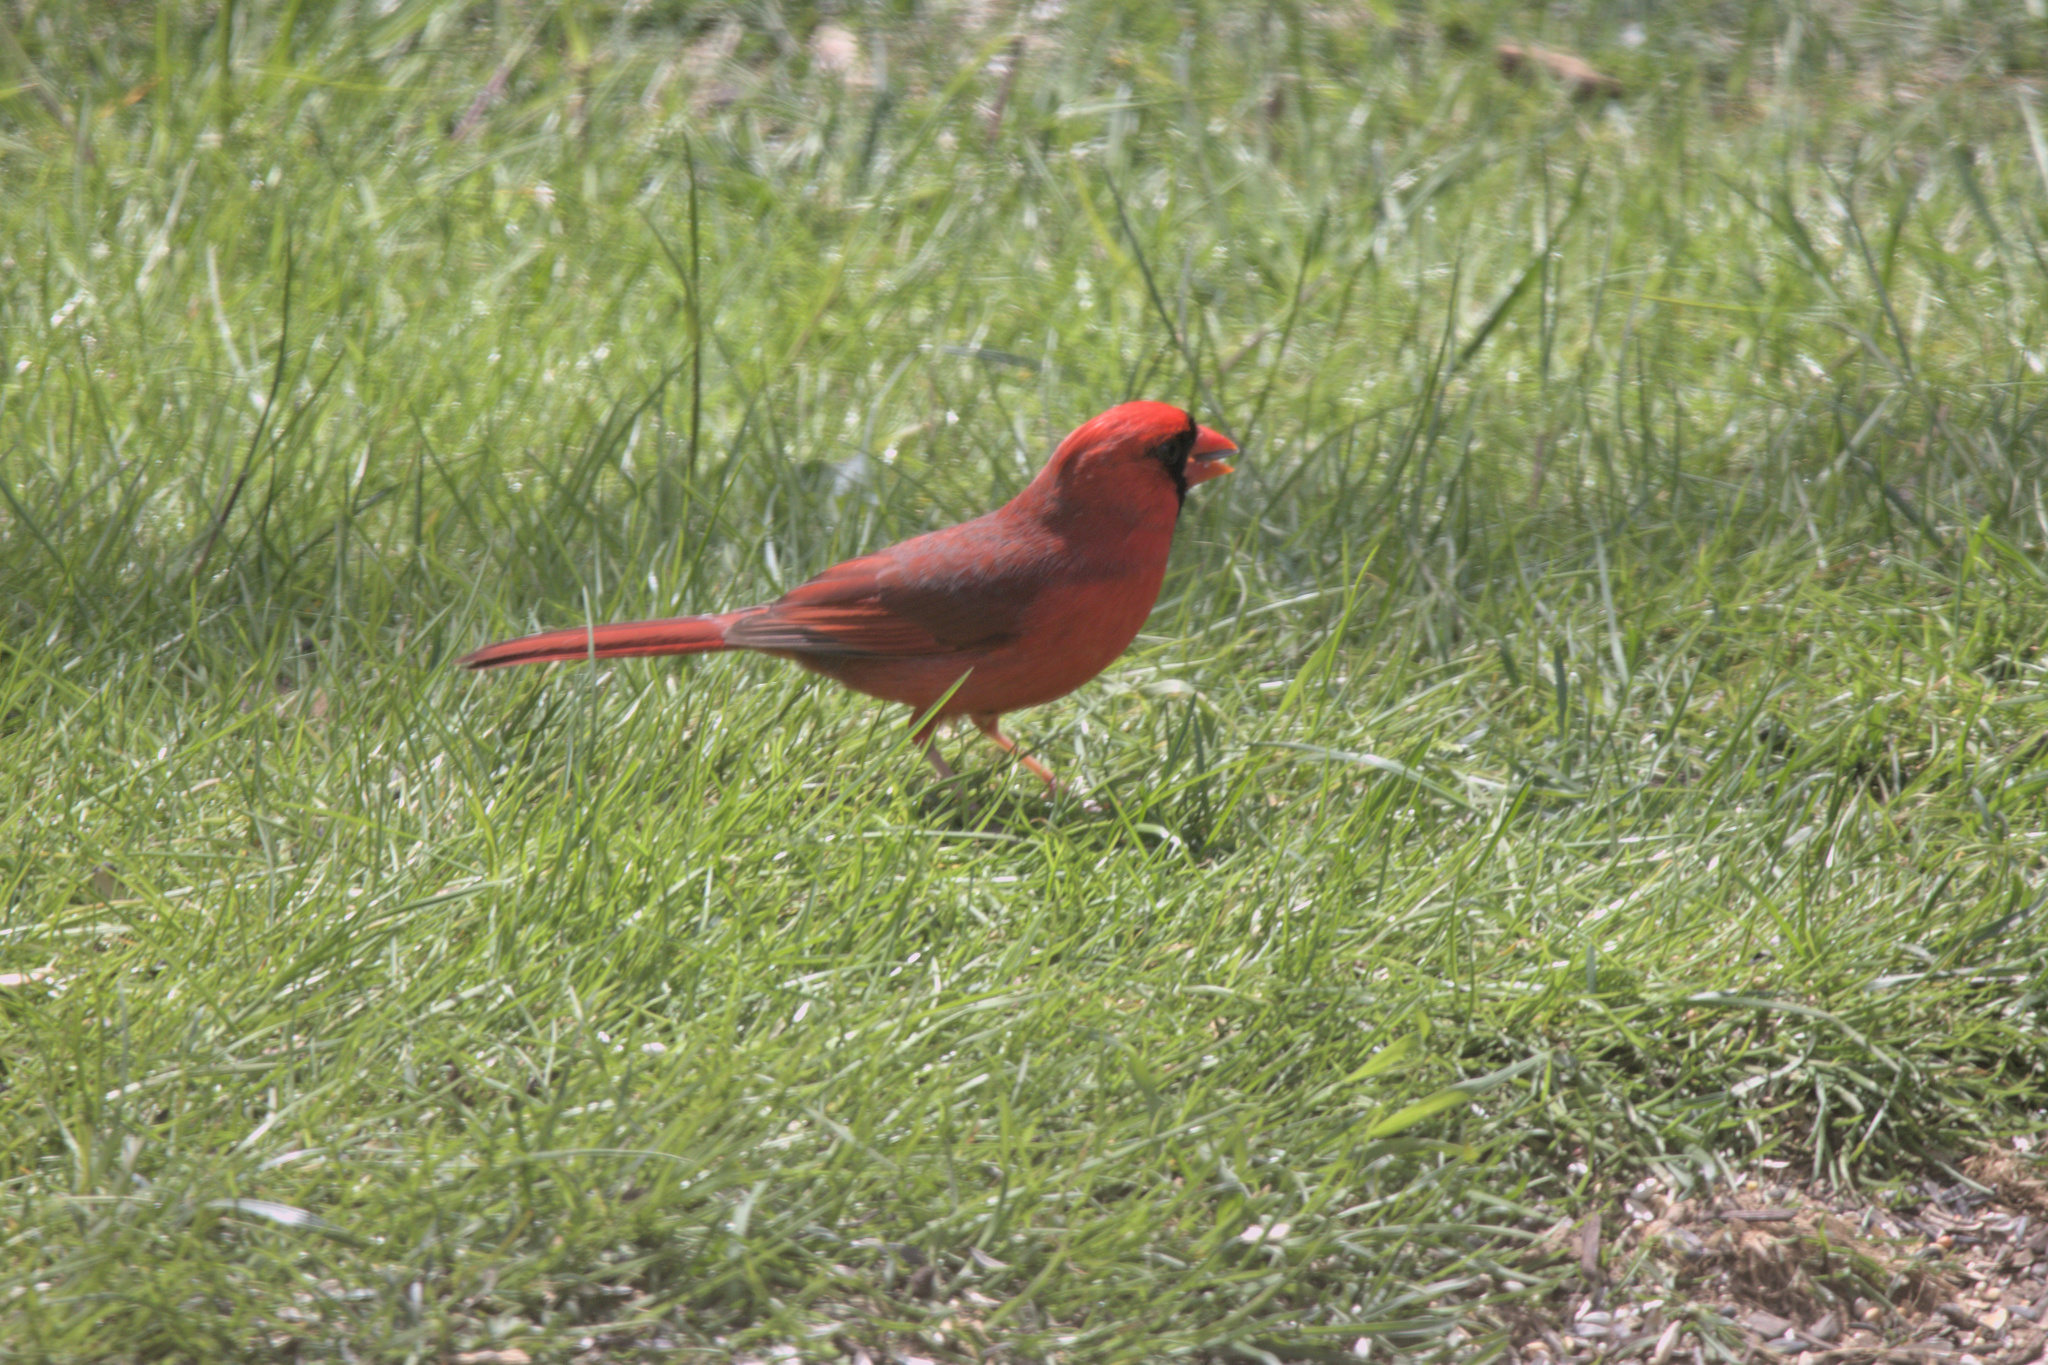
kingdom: Animalia
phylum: Chordata
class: Aves
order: Passeriformes
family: Cardinalidae
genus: Cardinalis
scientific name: Cardinalis cardinalis
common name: Northern cardinal
